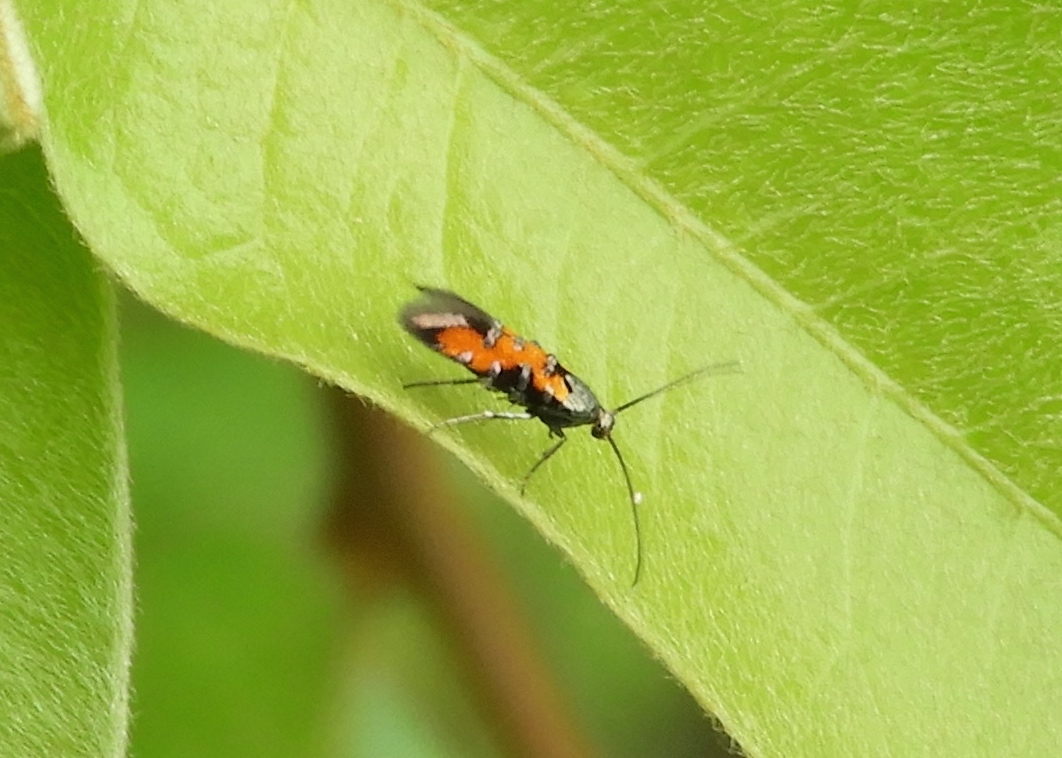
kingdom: Animalia
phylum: Arthropoda
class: Insecta
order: Lepidoptera
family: Heliodinidae
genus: Neoheliodines
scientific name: Neoheliodines
